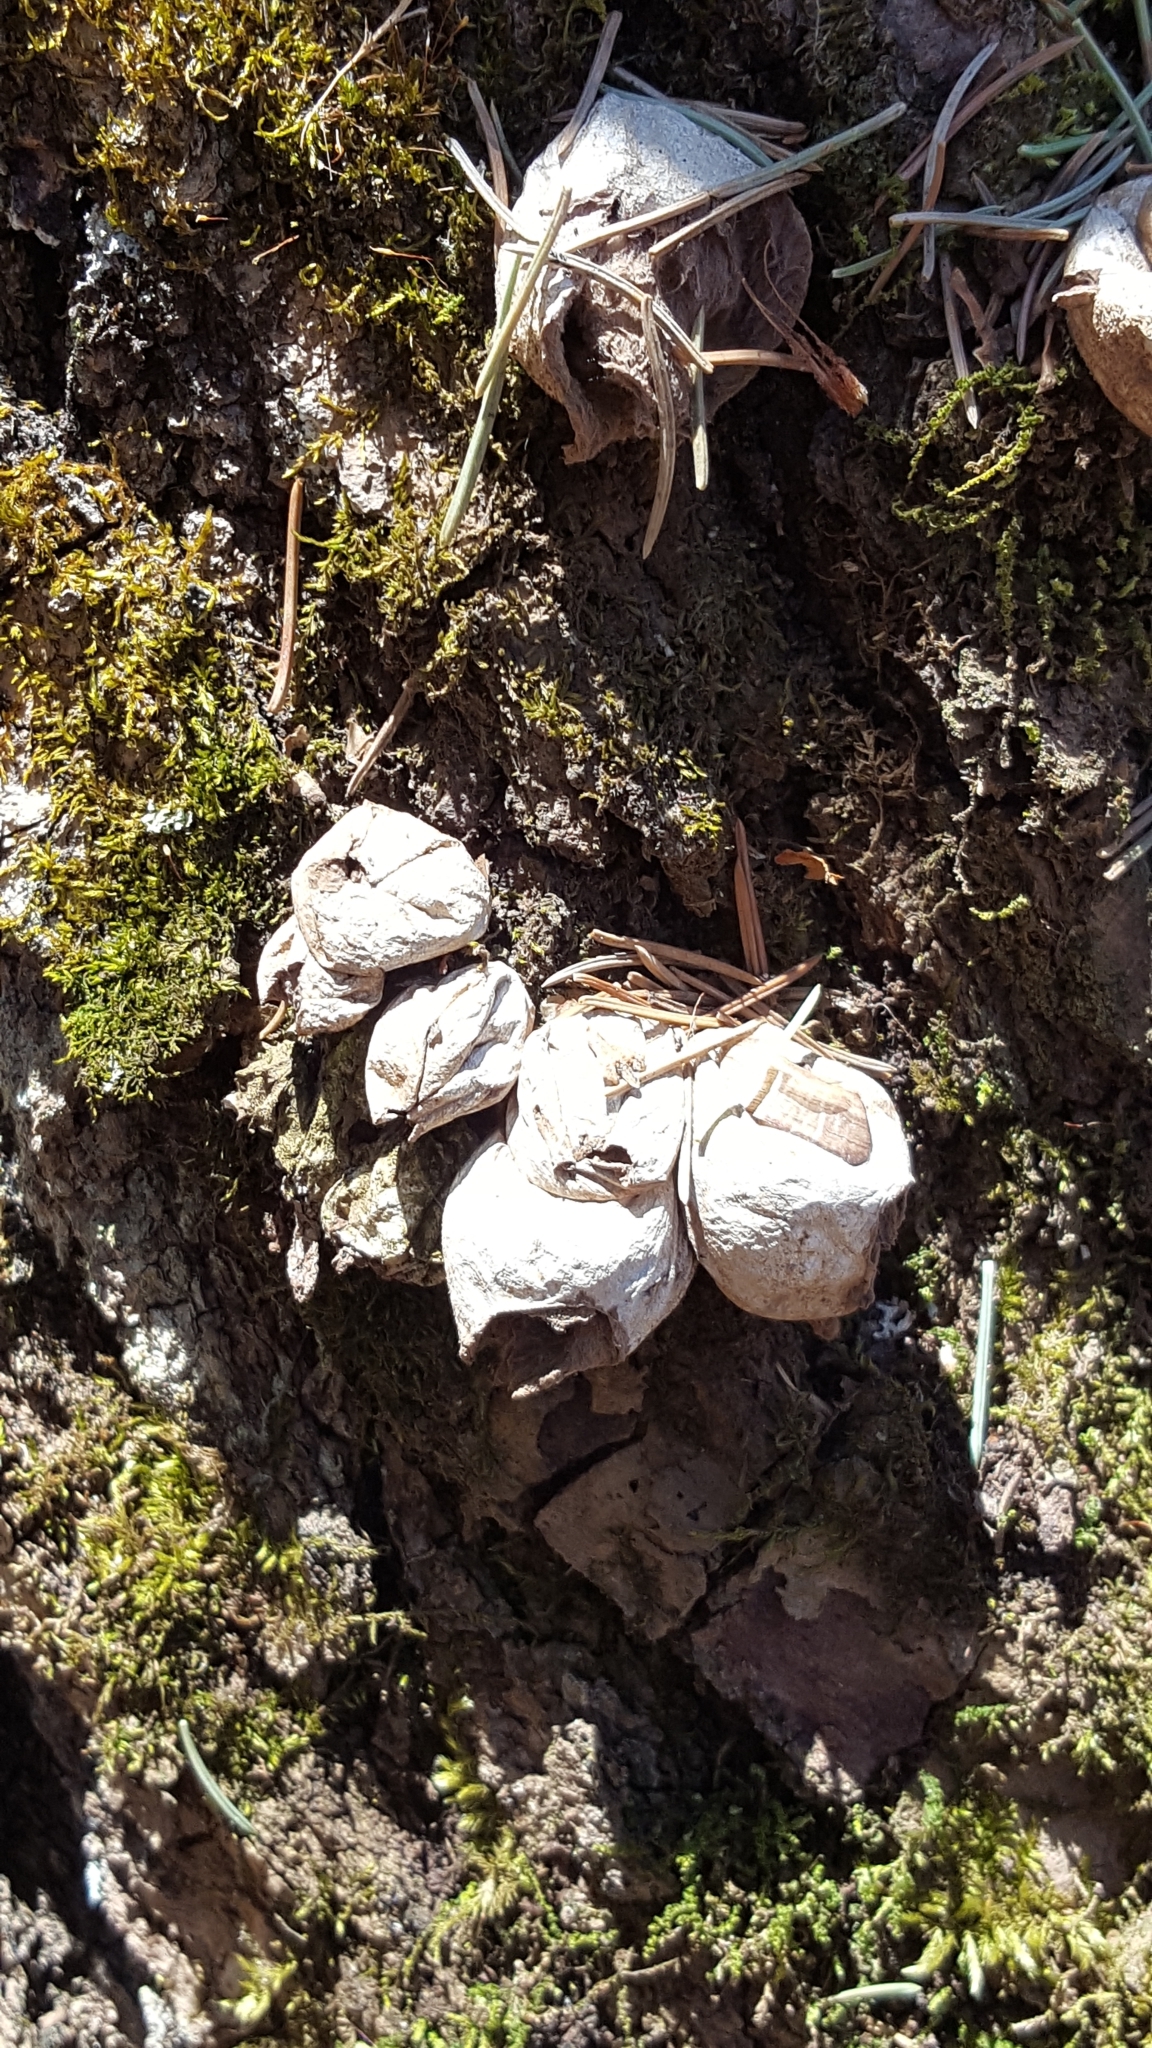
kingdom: Fungi
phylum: Basidiomycota
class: Agaricomycetes
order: Agaricales
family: Lycoperdaceae
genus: Apioperdon
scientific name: Apioperdon pyriforme
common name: Pear-shaped puffball
